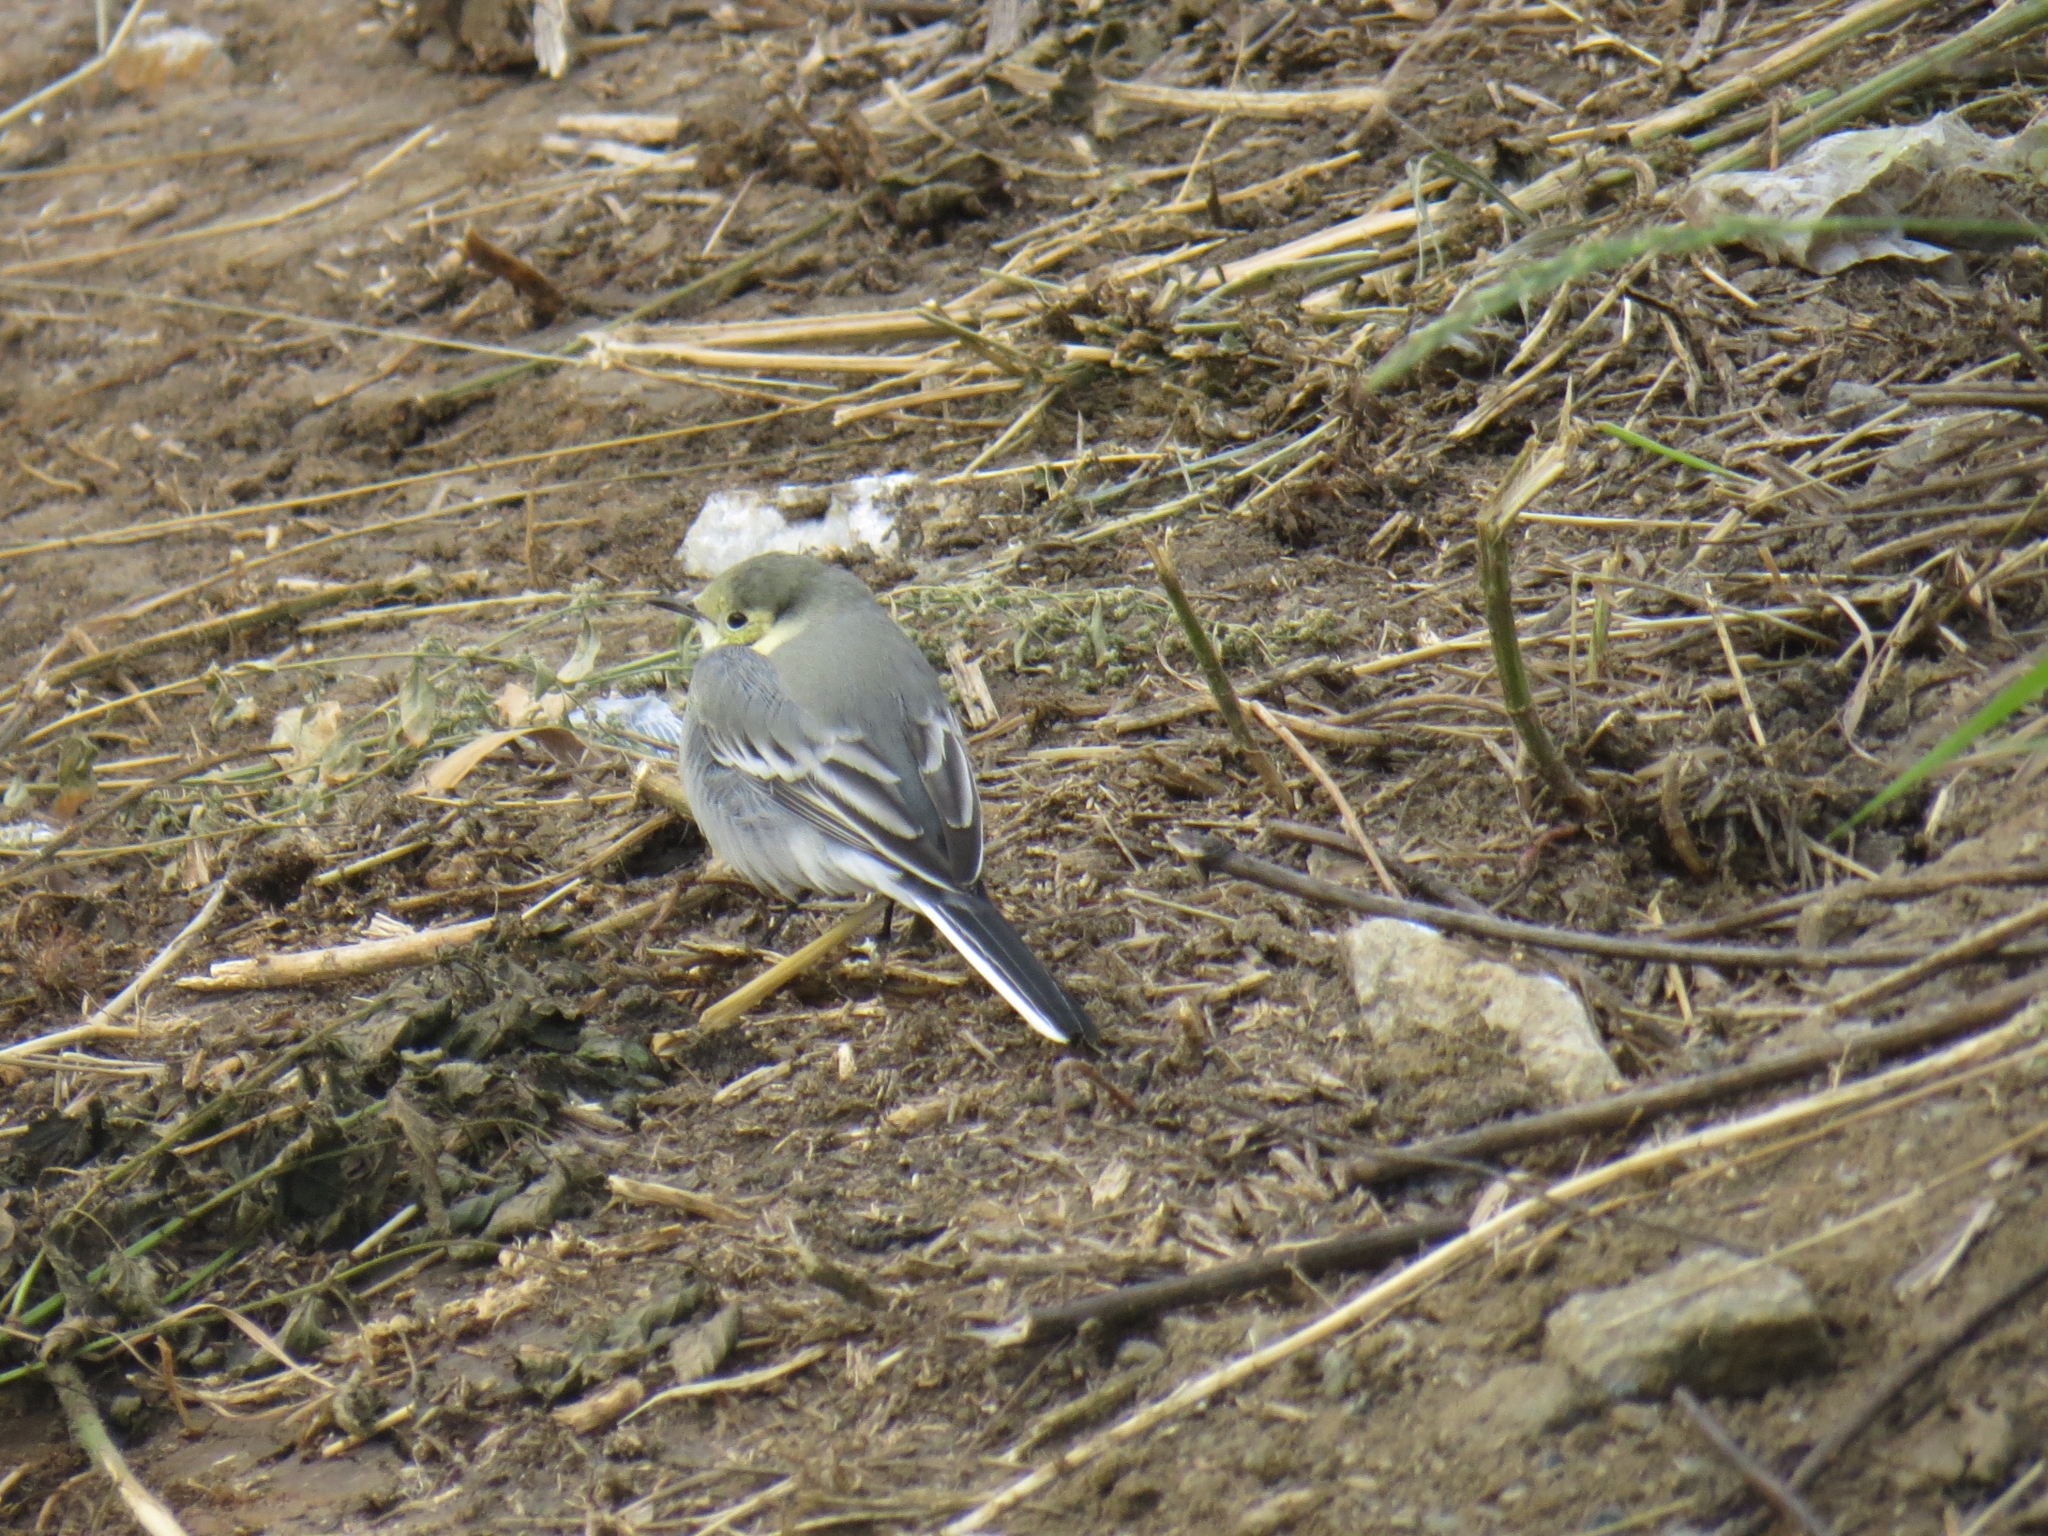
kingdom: Animalia
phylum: Chordata
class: Aves
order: Passeriformes
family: Motacillidae
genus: Motacilla
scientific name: Motacilla alba
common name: White wagtail
